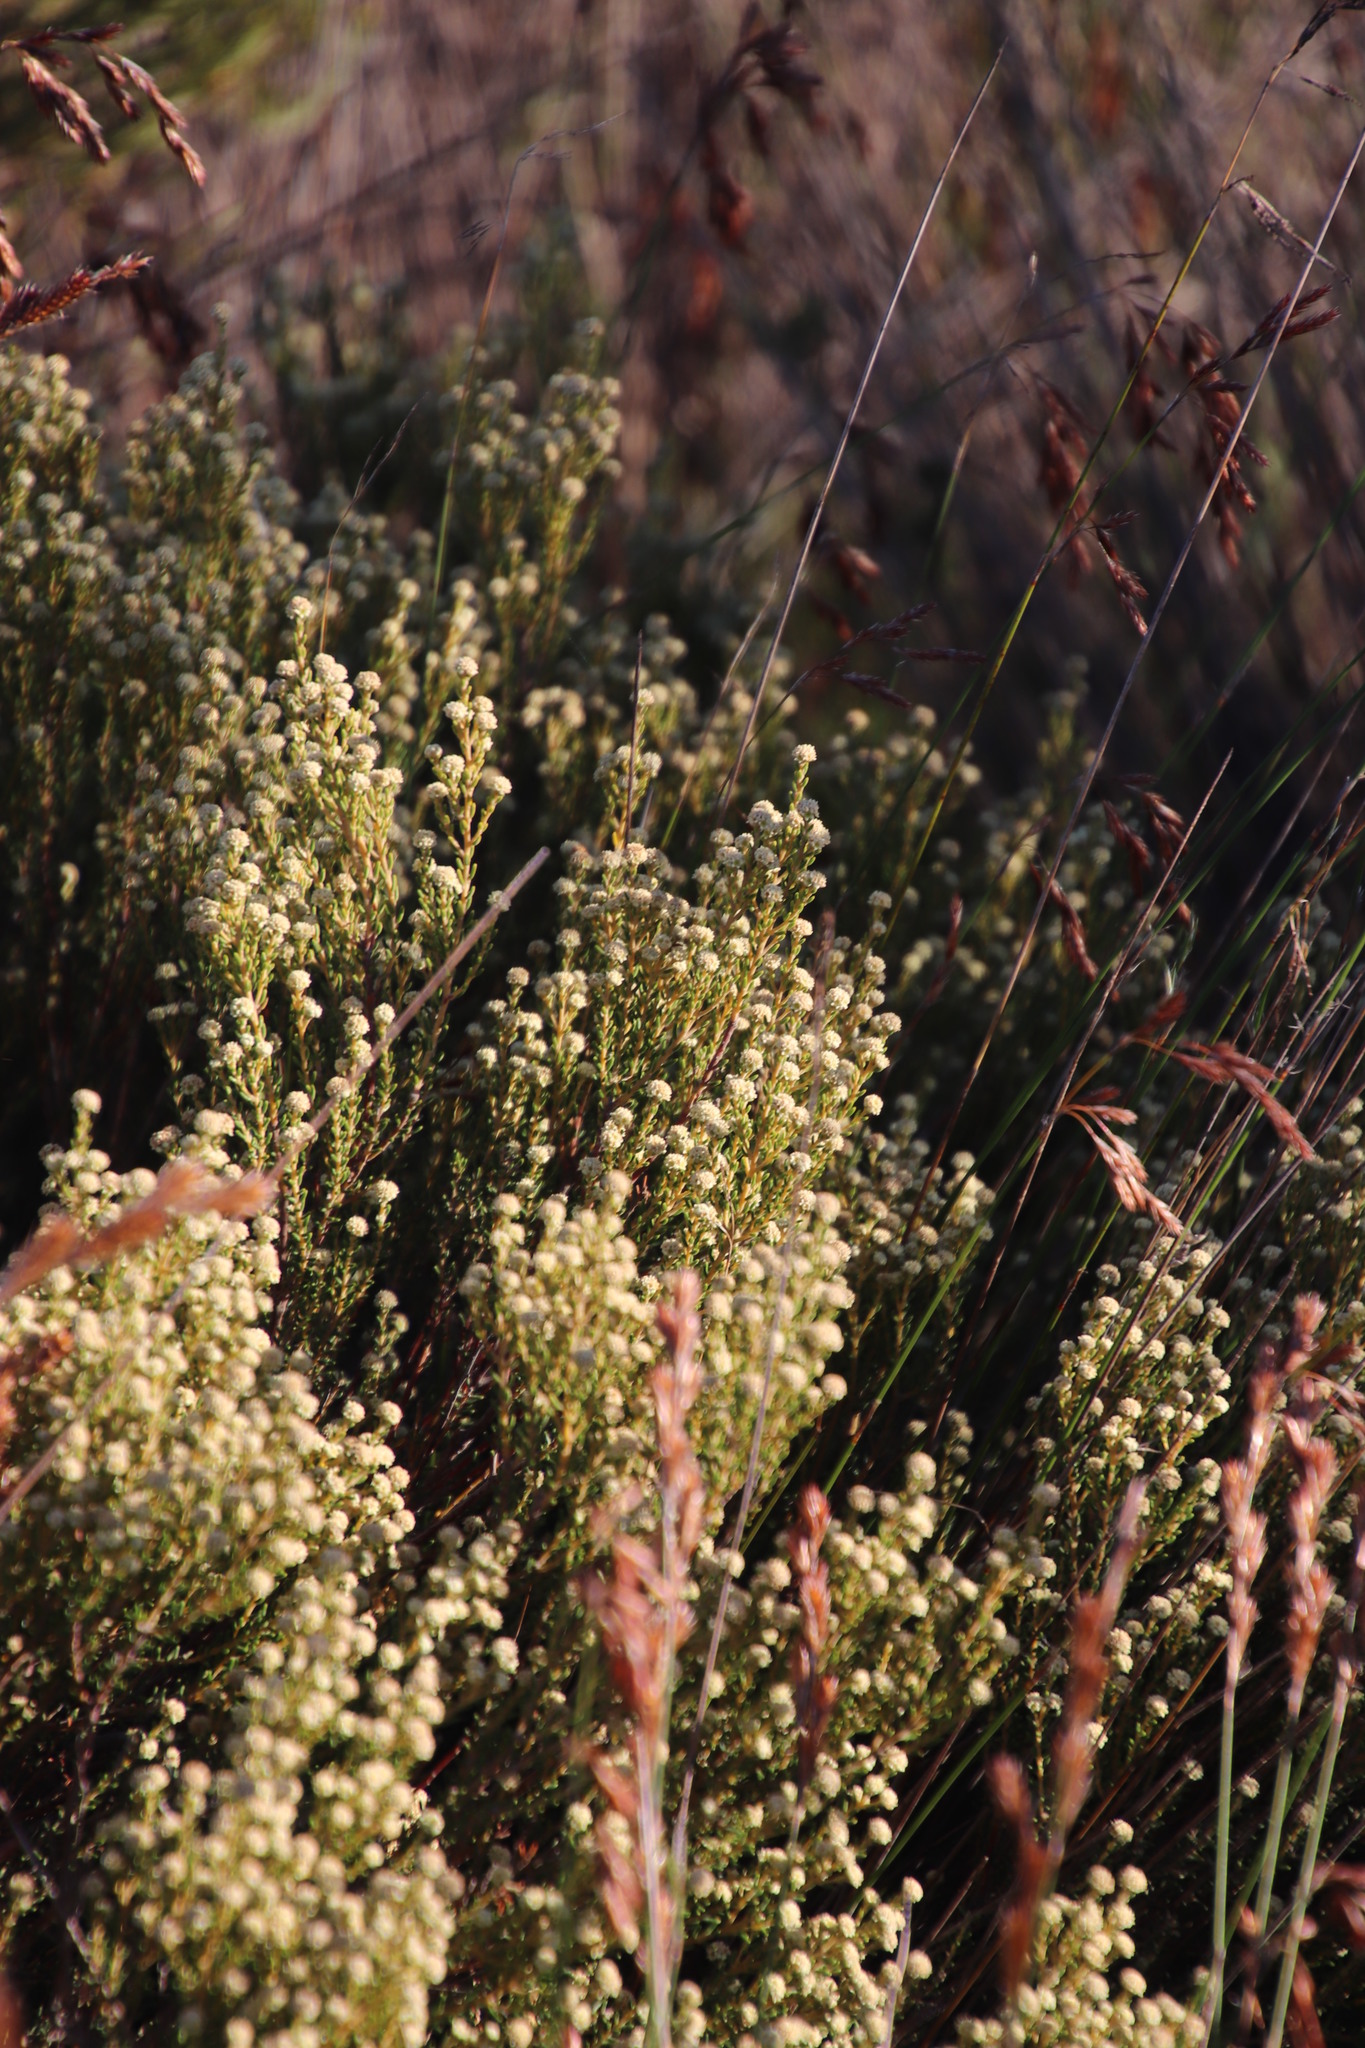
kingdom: Plantae
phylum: Tracheophyta
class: Magnoliopsida
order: Rosales
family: Rhamnaceae
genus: Phylica
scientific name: Phylica cephalantha
